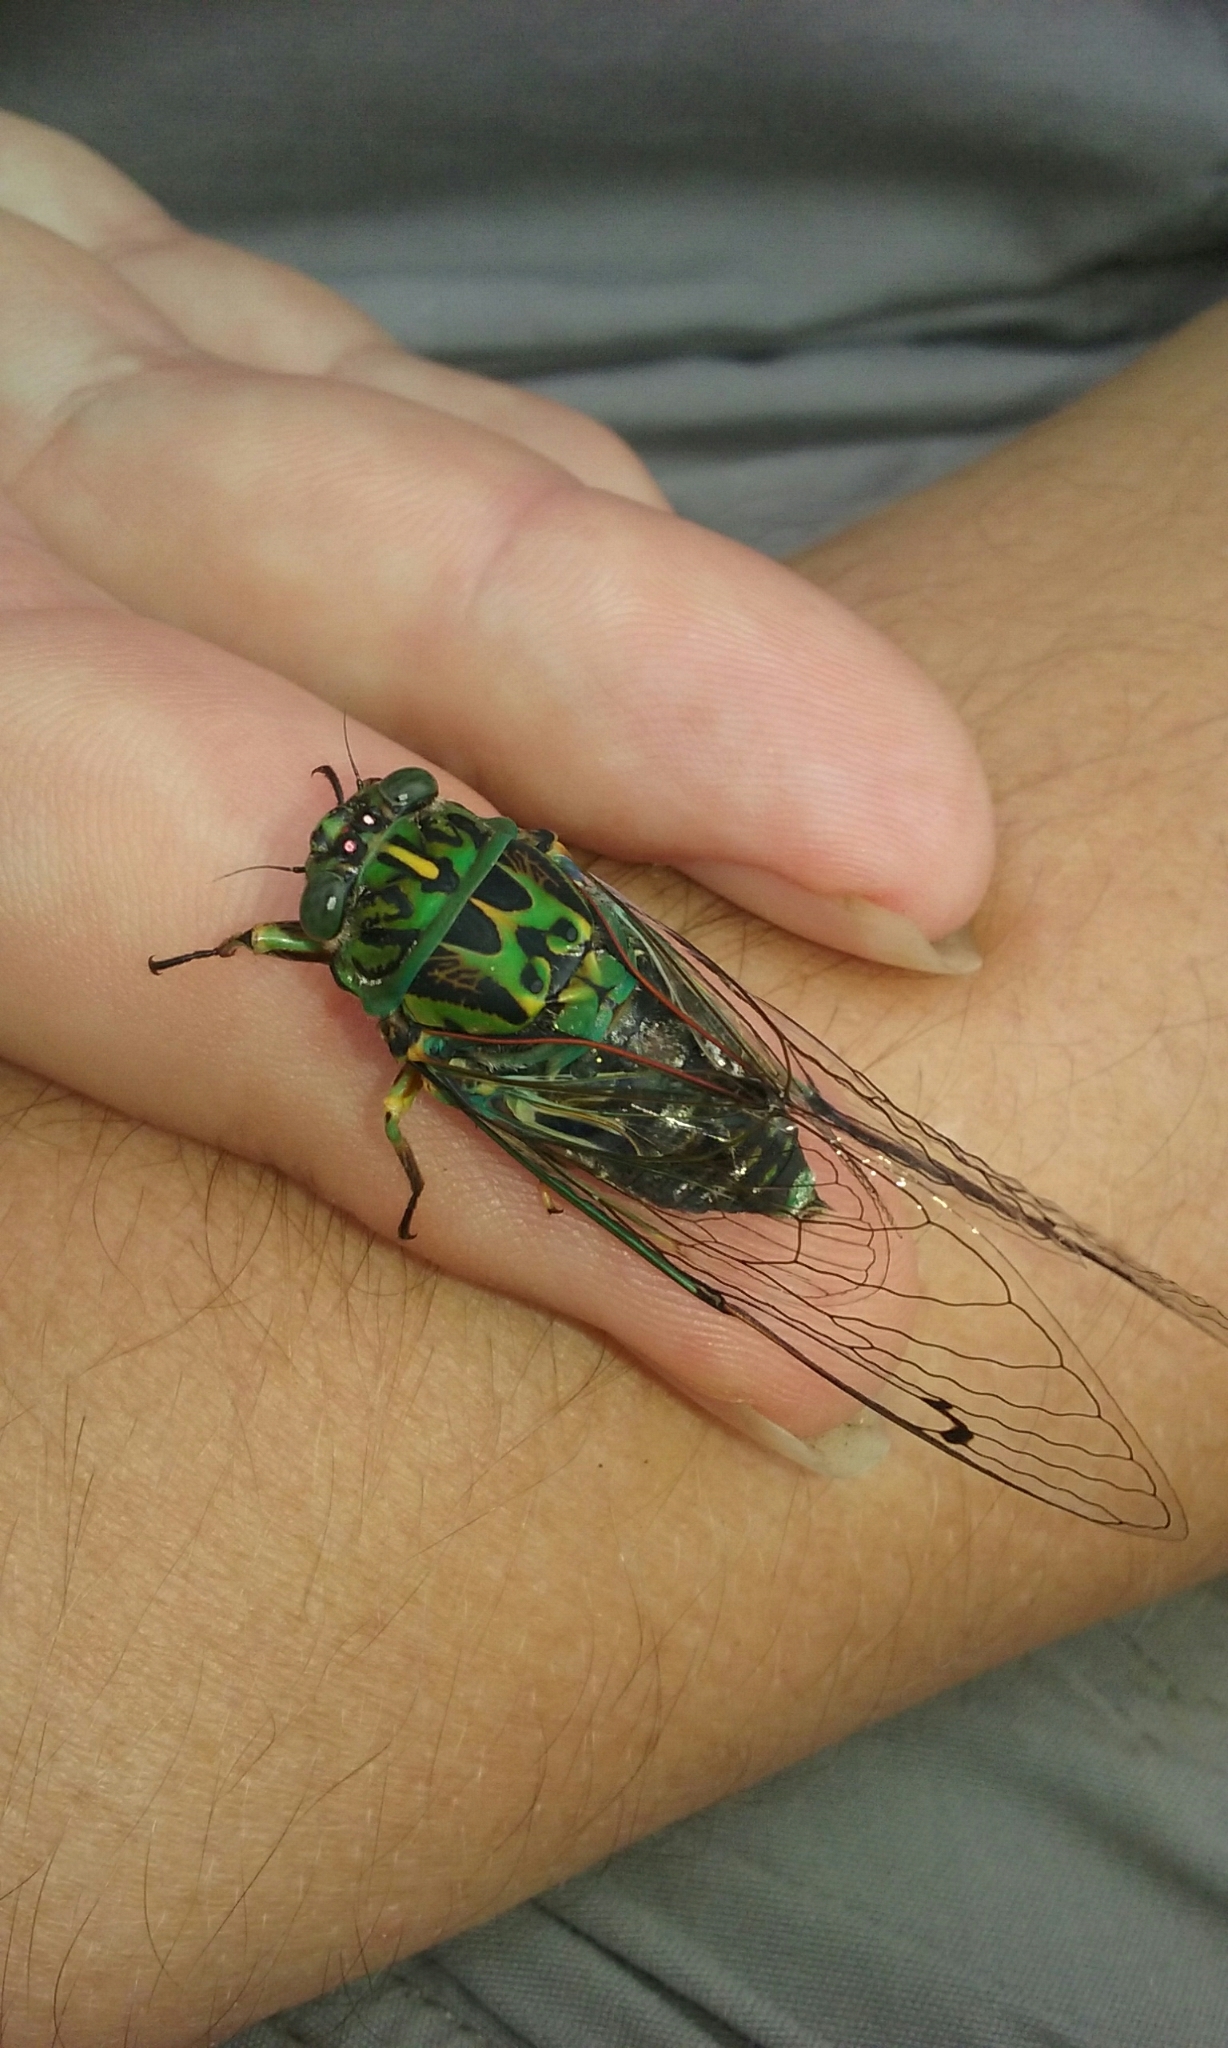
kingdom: Animalia
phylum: Arthropoda
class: Insecta
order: Hemiptera
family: Cicadidae
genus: Amphipsalta
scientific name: Amphipsalta zelandica
